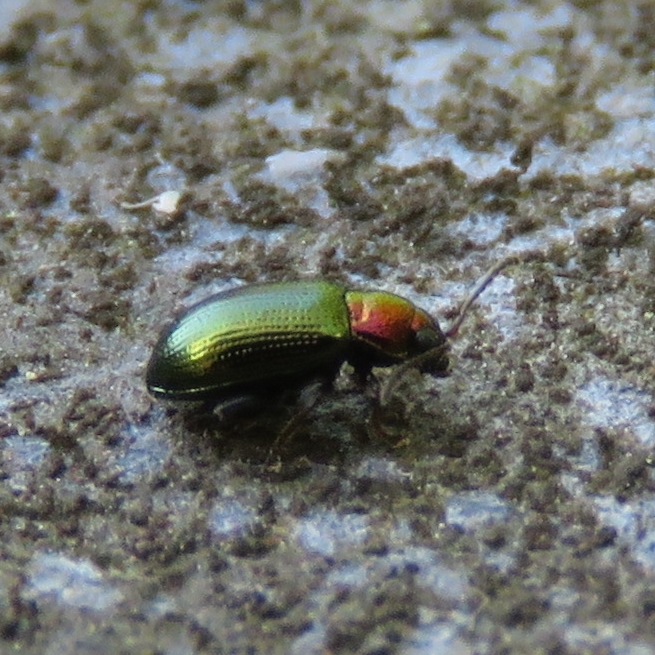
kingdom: Animalia
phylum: Arthropoda
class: Insecta
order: Coleoptera
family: Chrysomelidae
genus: Crepidodera
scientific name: Crepidodera aurata
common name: Willow flea beetle
